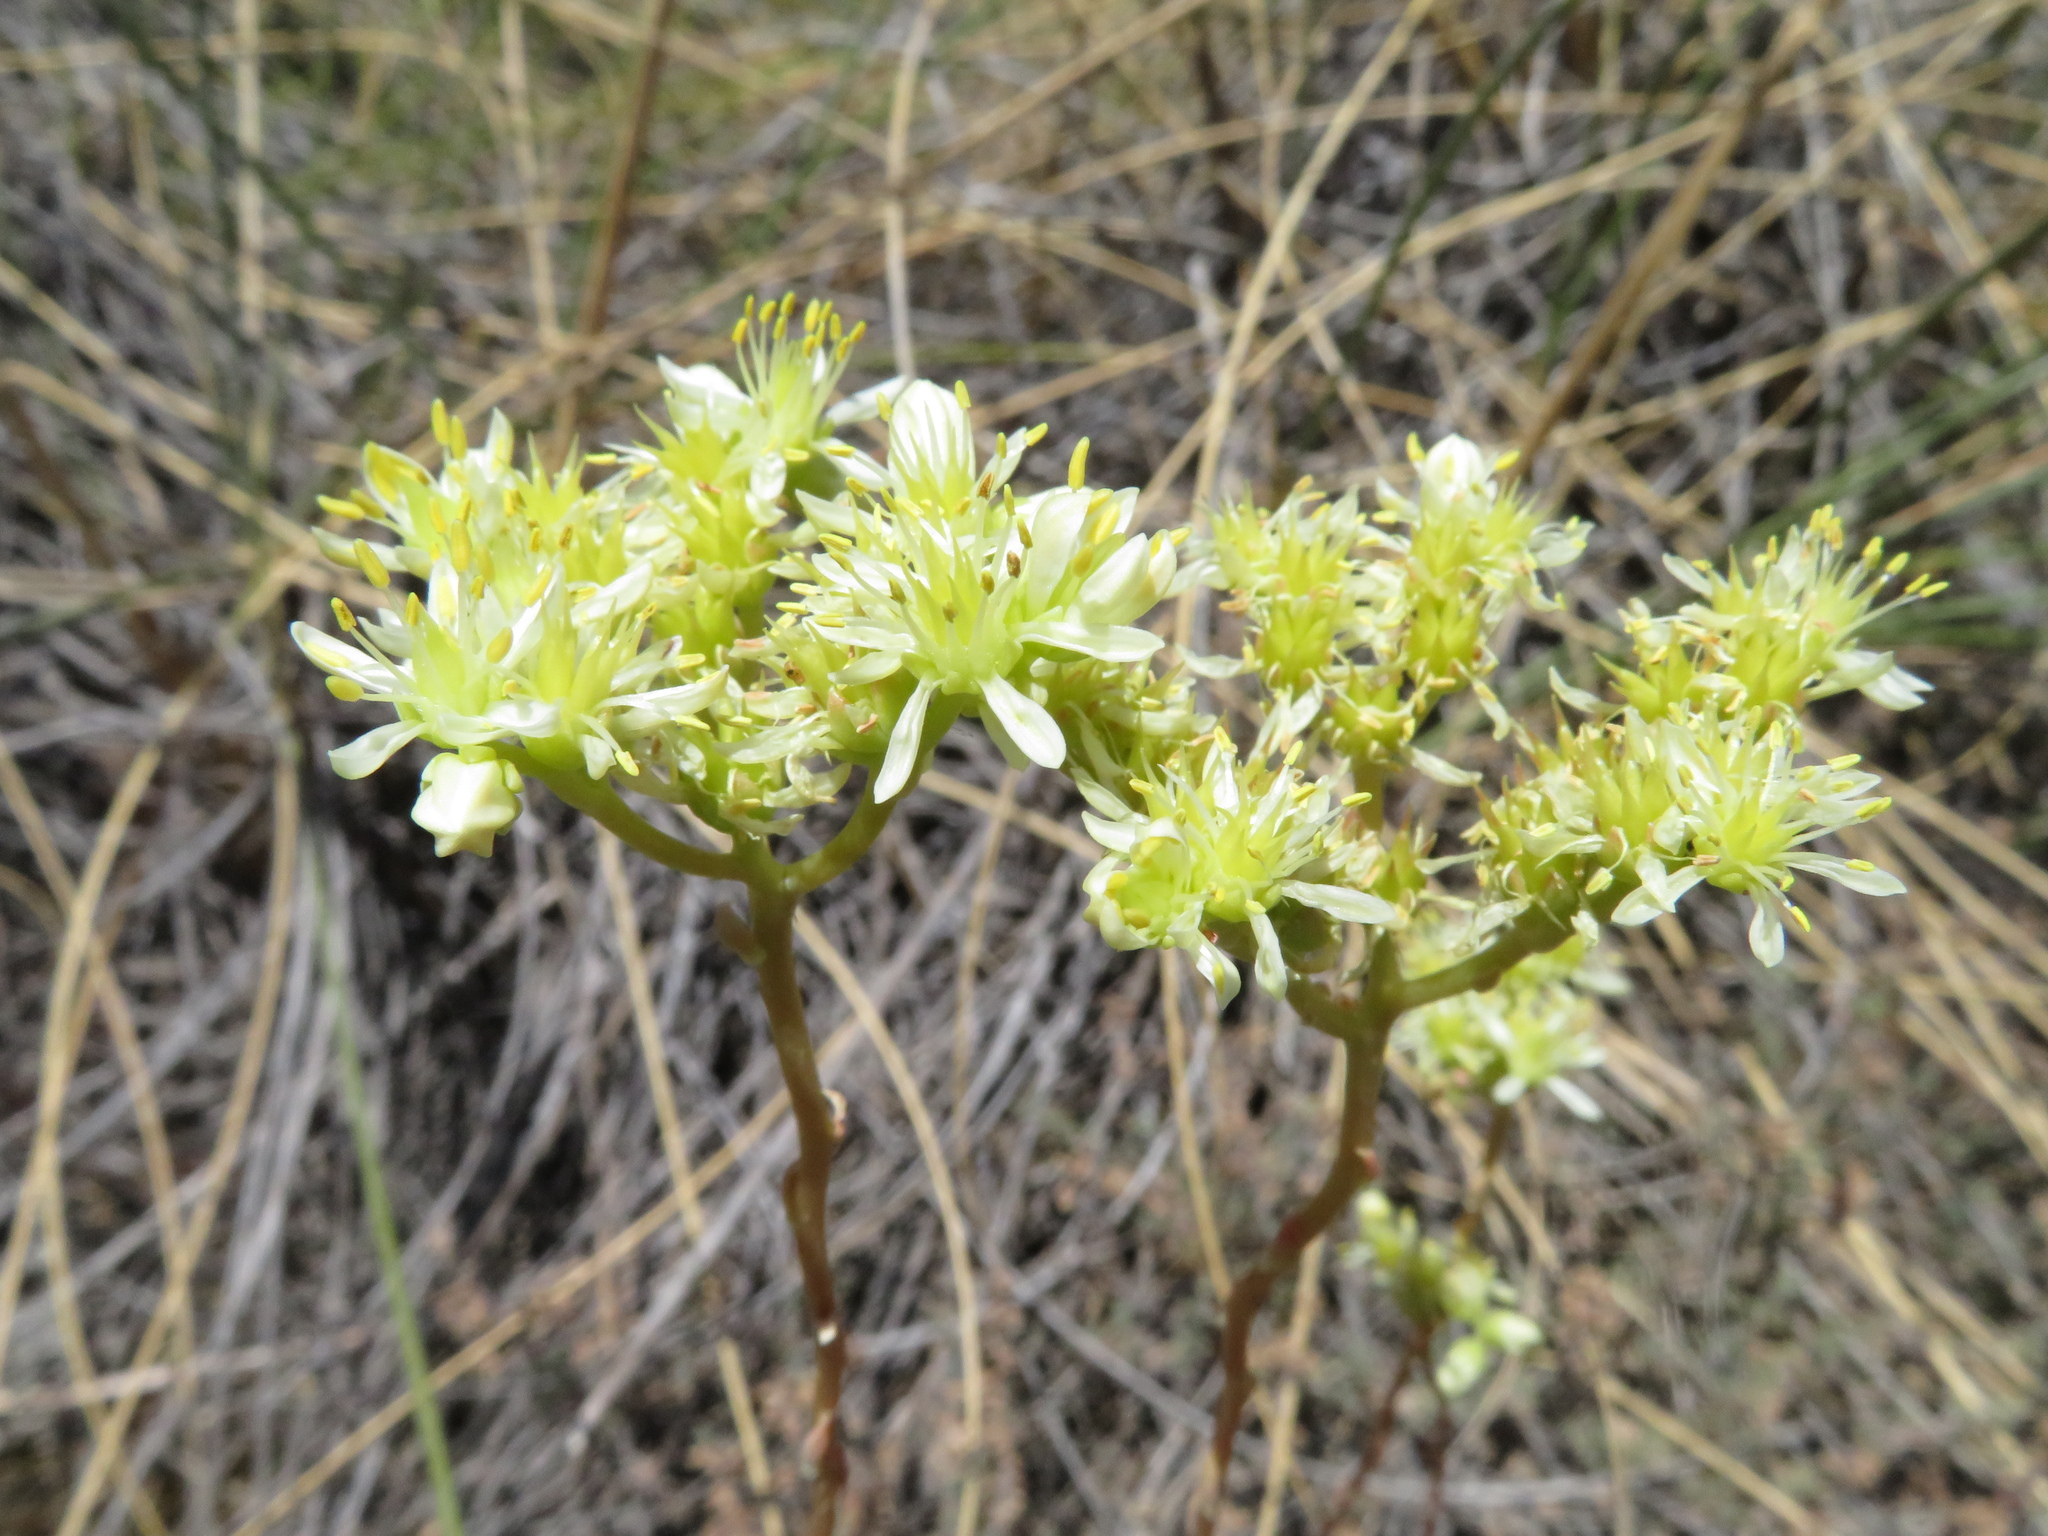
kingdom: Plantae
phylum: Tracheophyta
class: Magnoliopsida
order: Saxifragales
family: Crassulaceae
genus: Petrosedum
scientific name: Petrosedum sediforme
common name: Pale stonecrop
